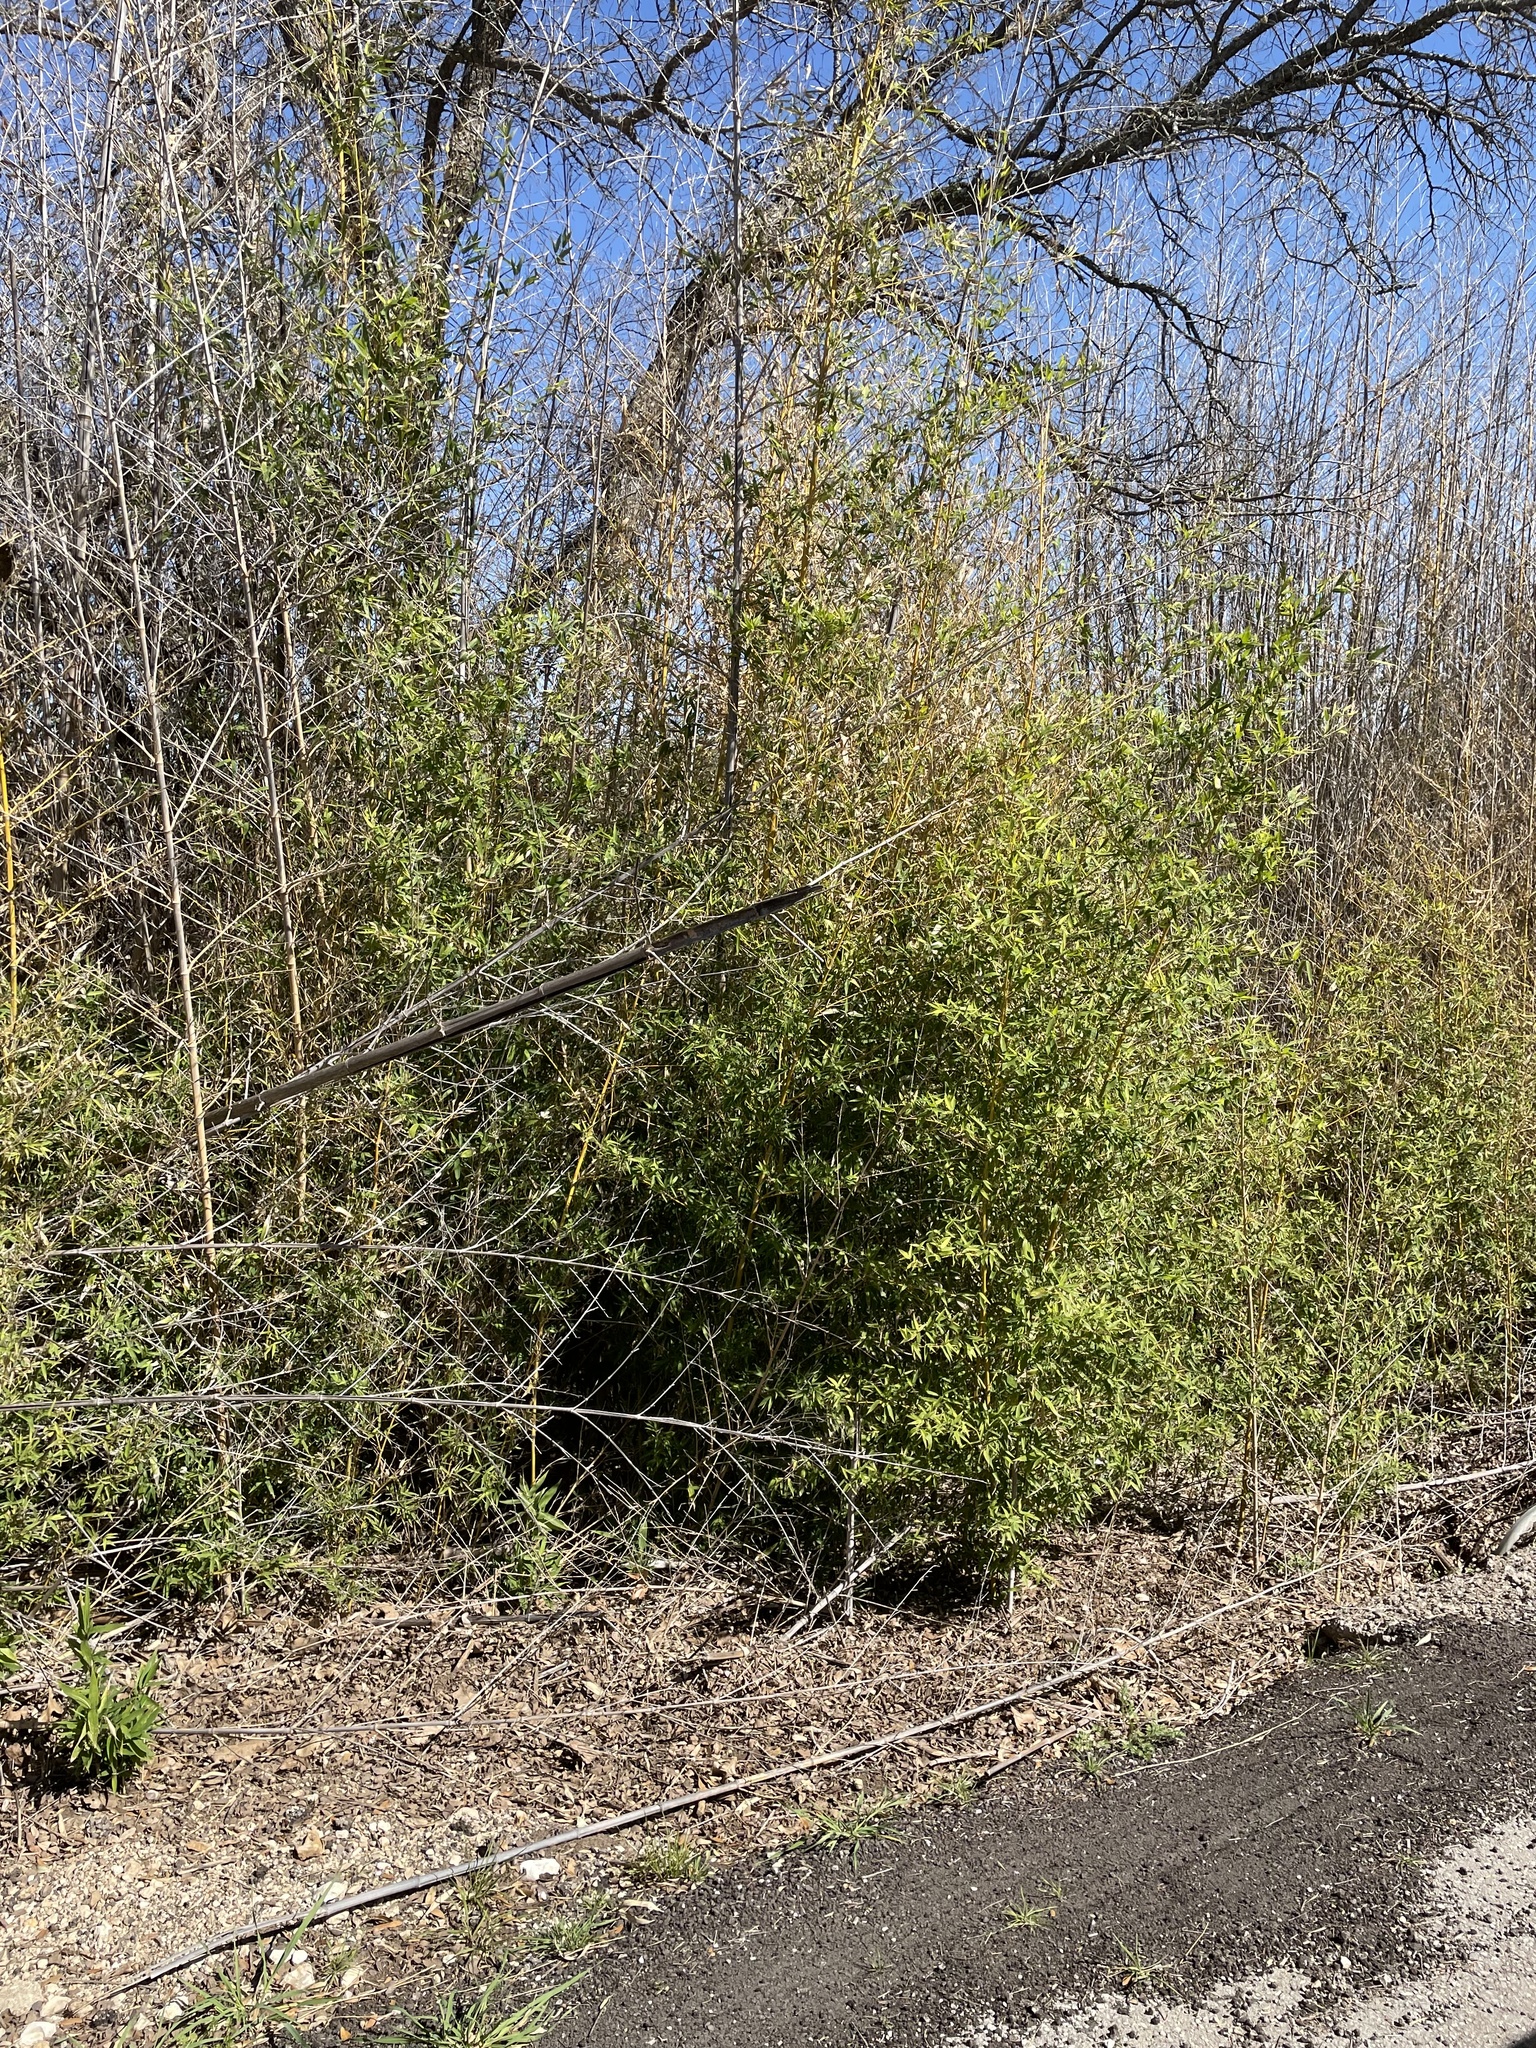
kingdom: Plantae
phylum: Tracheophyta
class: Liliopsida
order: Poales
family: Poaceae
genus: Phyllostachys
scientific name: Phyllostachys aurea
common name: Golden bamboo
